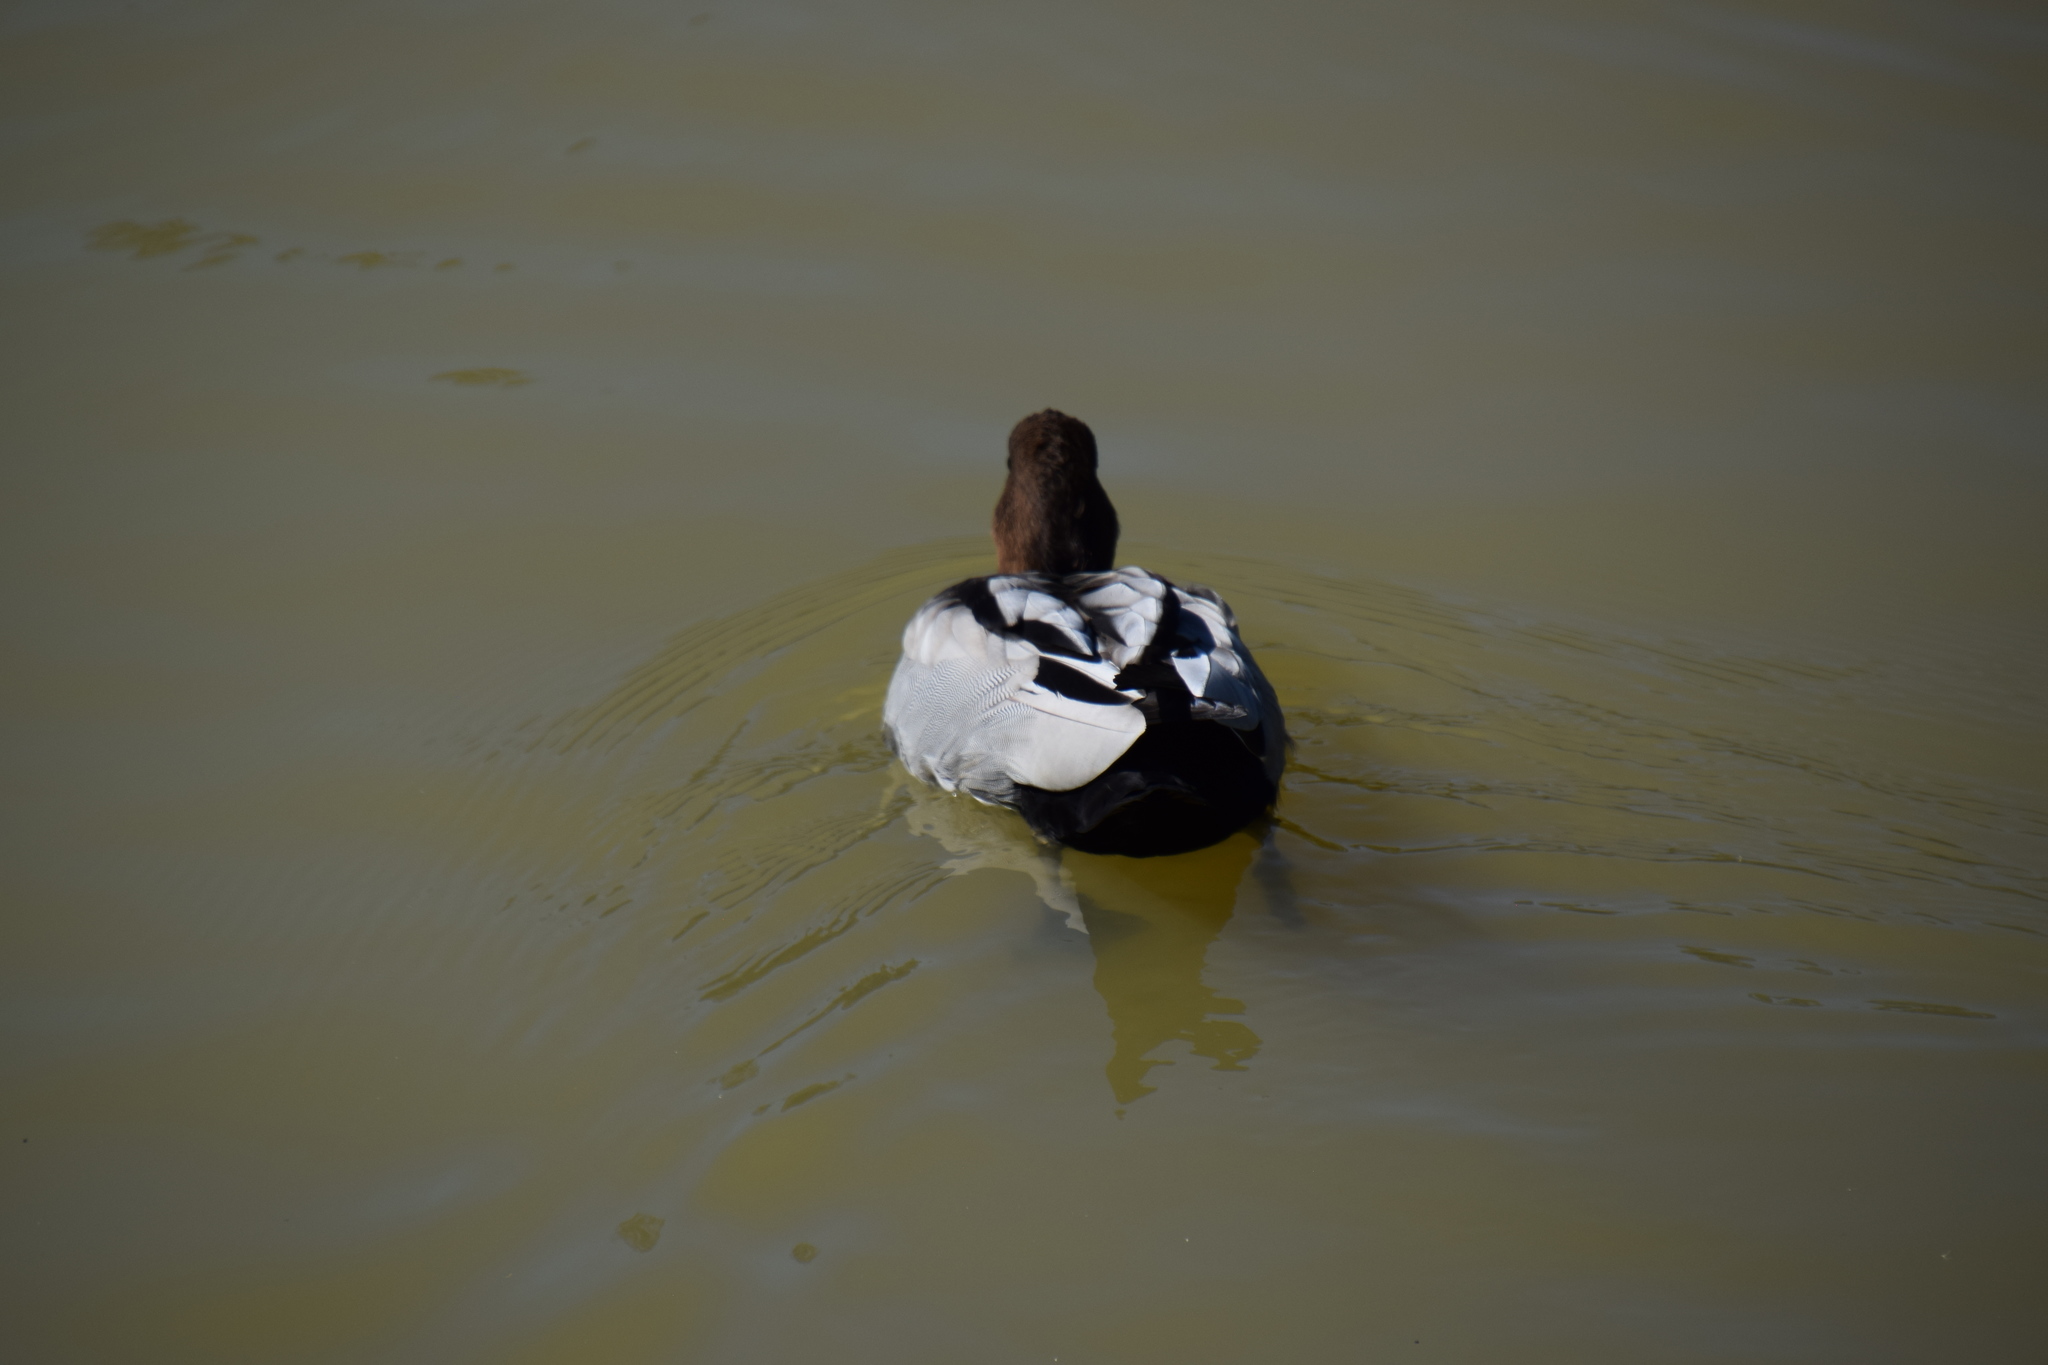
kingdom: Animalia
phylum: Chordata
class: Aves
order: Anseriformes
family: Anatidae
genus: Chenonetta
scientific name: Chenonetta jubata
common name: Maned duck
